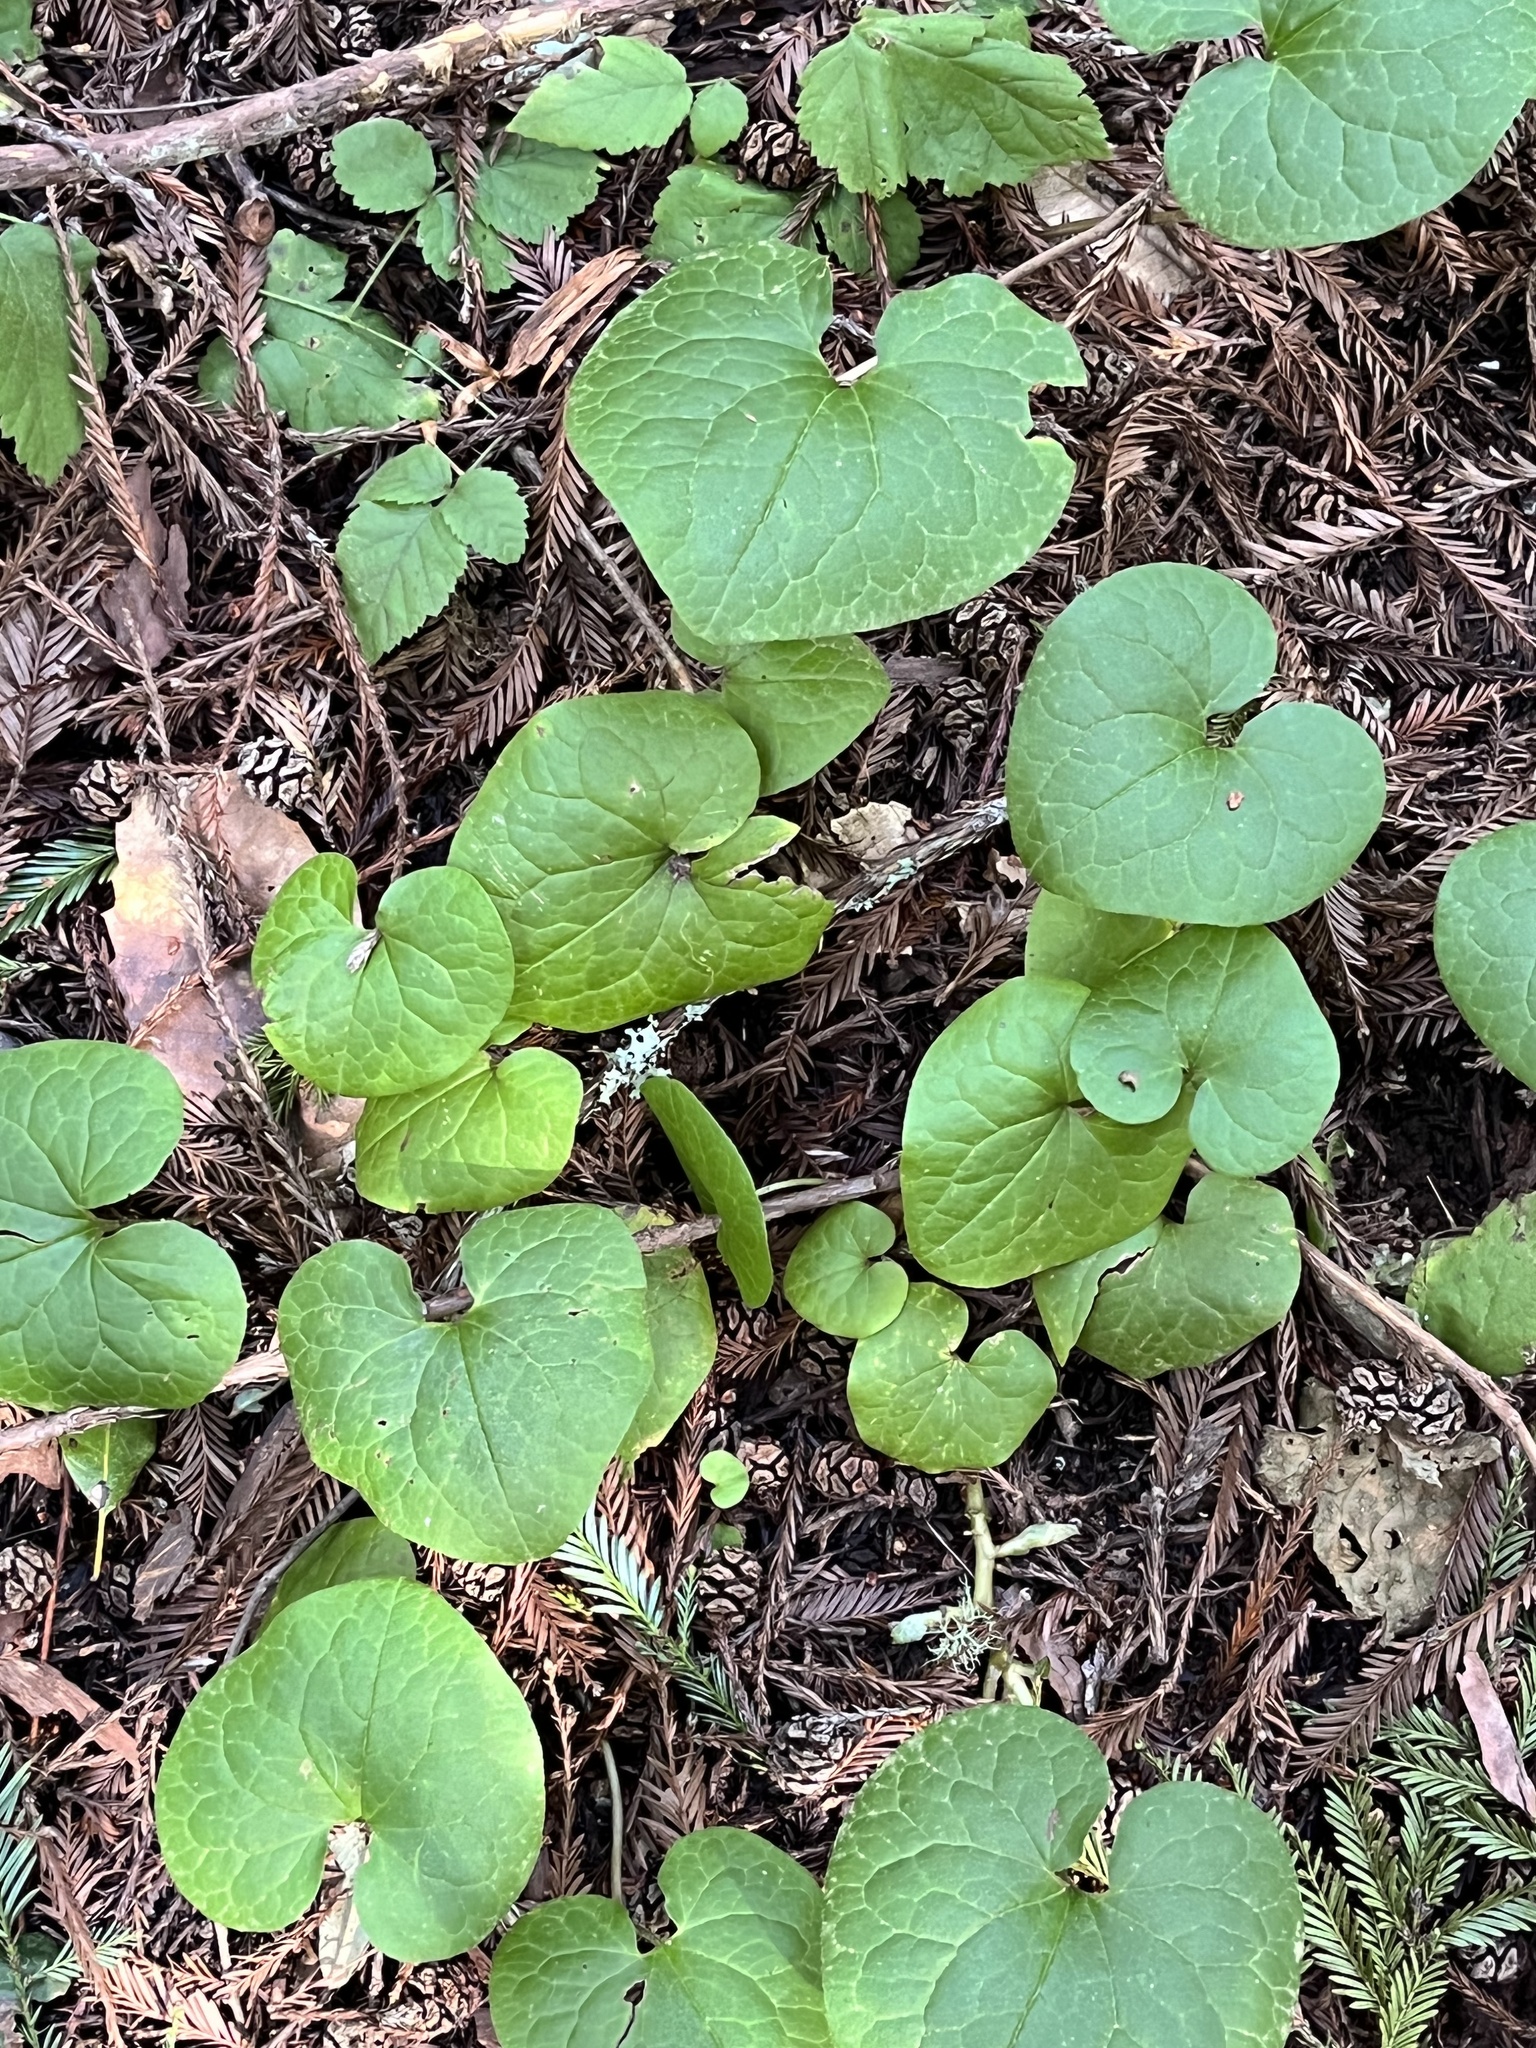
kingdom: Plantae
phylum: Tracheophyta
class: Magnoliopsida
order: Piperales
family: Aristolochiaceae
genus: Asarum
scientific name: Asarum caudatum
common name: Wild ginger
